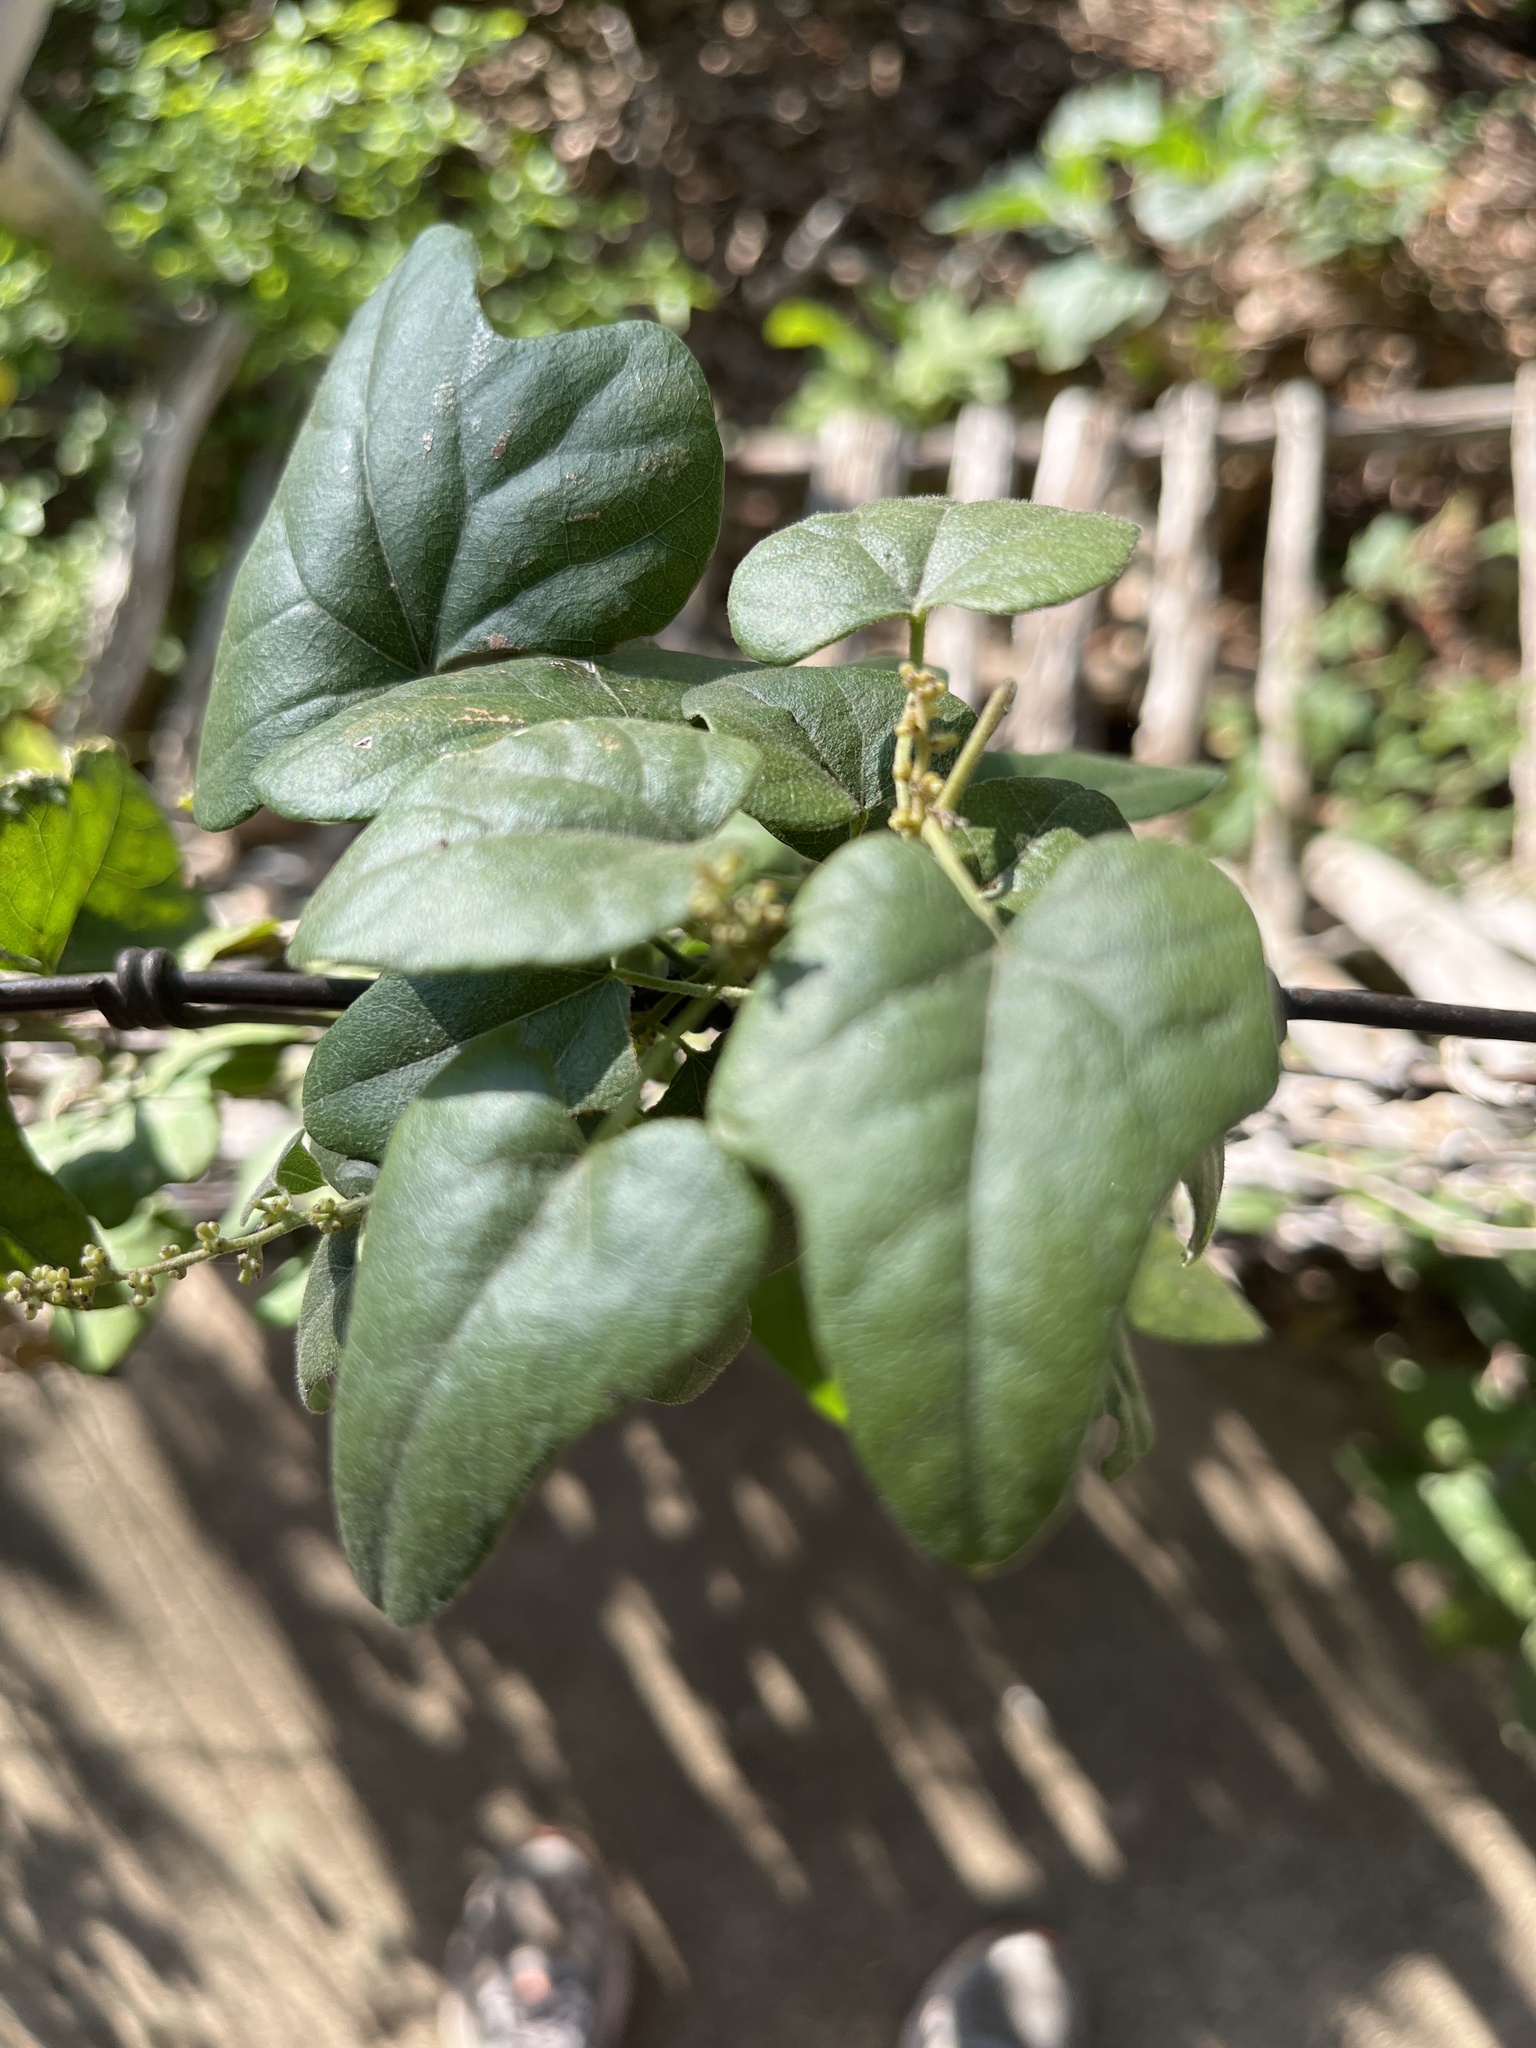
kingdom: Plantae
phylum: Tracheophyta
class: Magnoliopsida
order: Ranunculales
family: Menispermaceae
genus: Cocculus
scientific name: Cocculus carolinus
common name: Carolina moonseed
